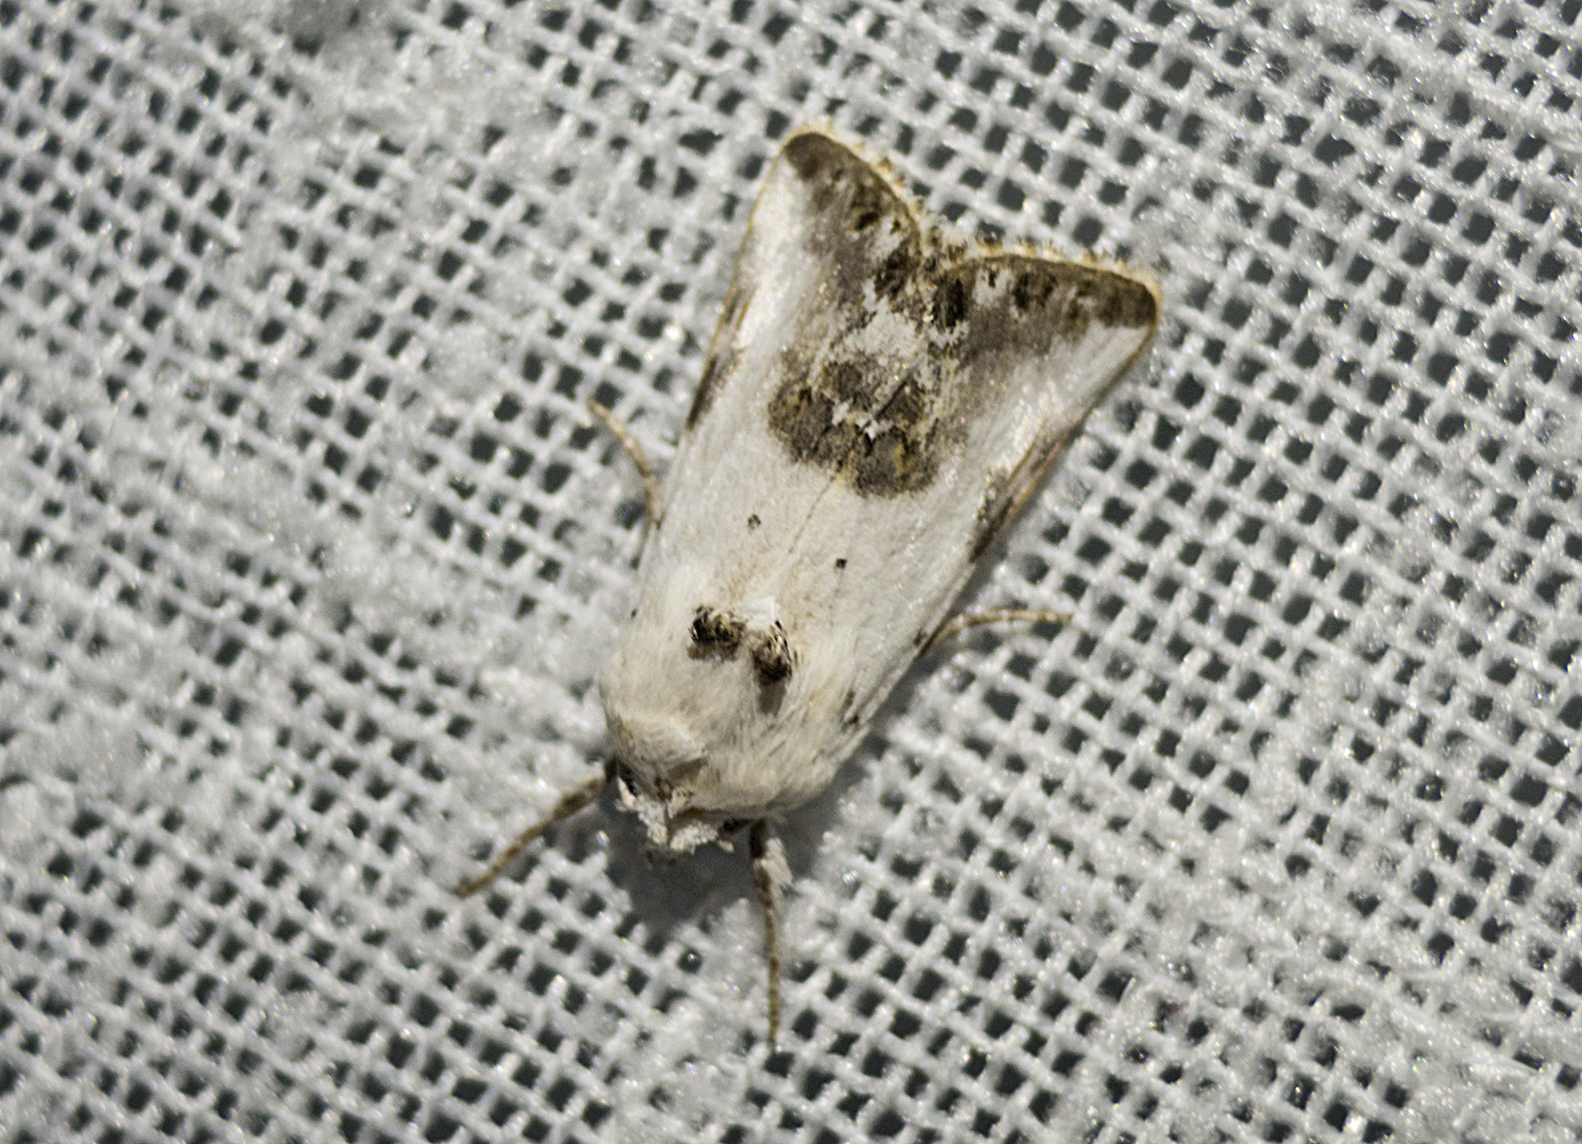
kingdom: Animalia
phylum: Arthropoda
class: Insecta
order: Lepidoptera
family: Noctuidae
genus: Calophasia
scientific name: Calophasia opalina
